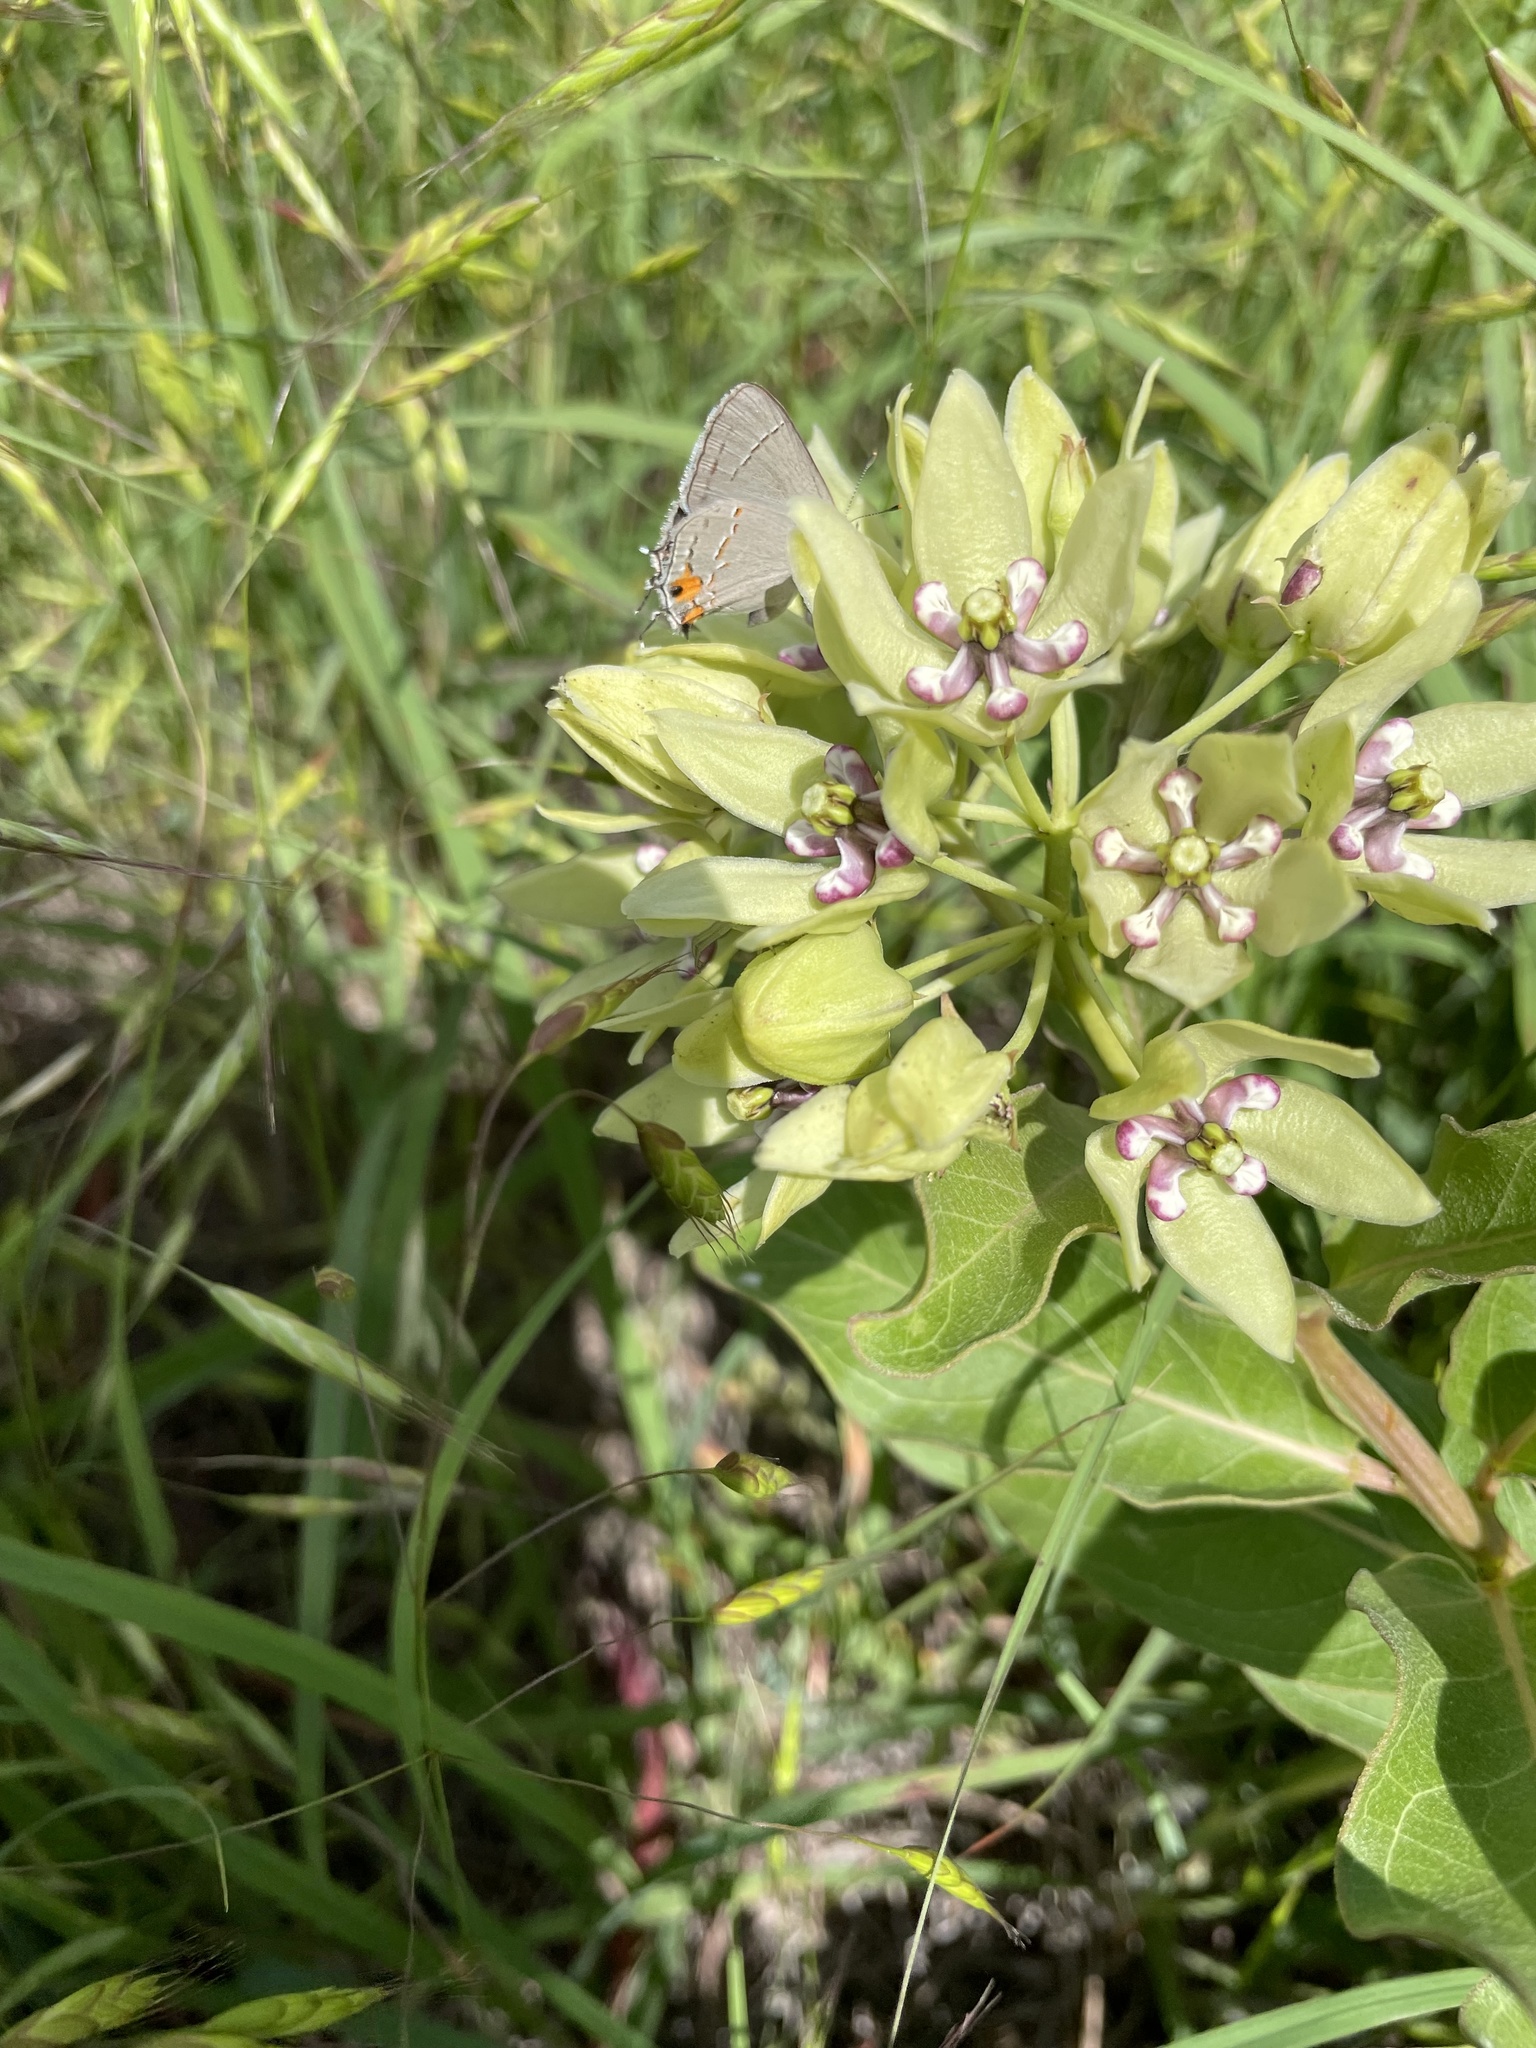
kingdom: Animalia
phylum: Arthropoda
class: Insecta
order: Lepidoptera
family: Lycaenidae
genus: Strymon
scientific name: Strymon melinus
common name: Gray hairstreak
